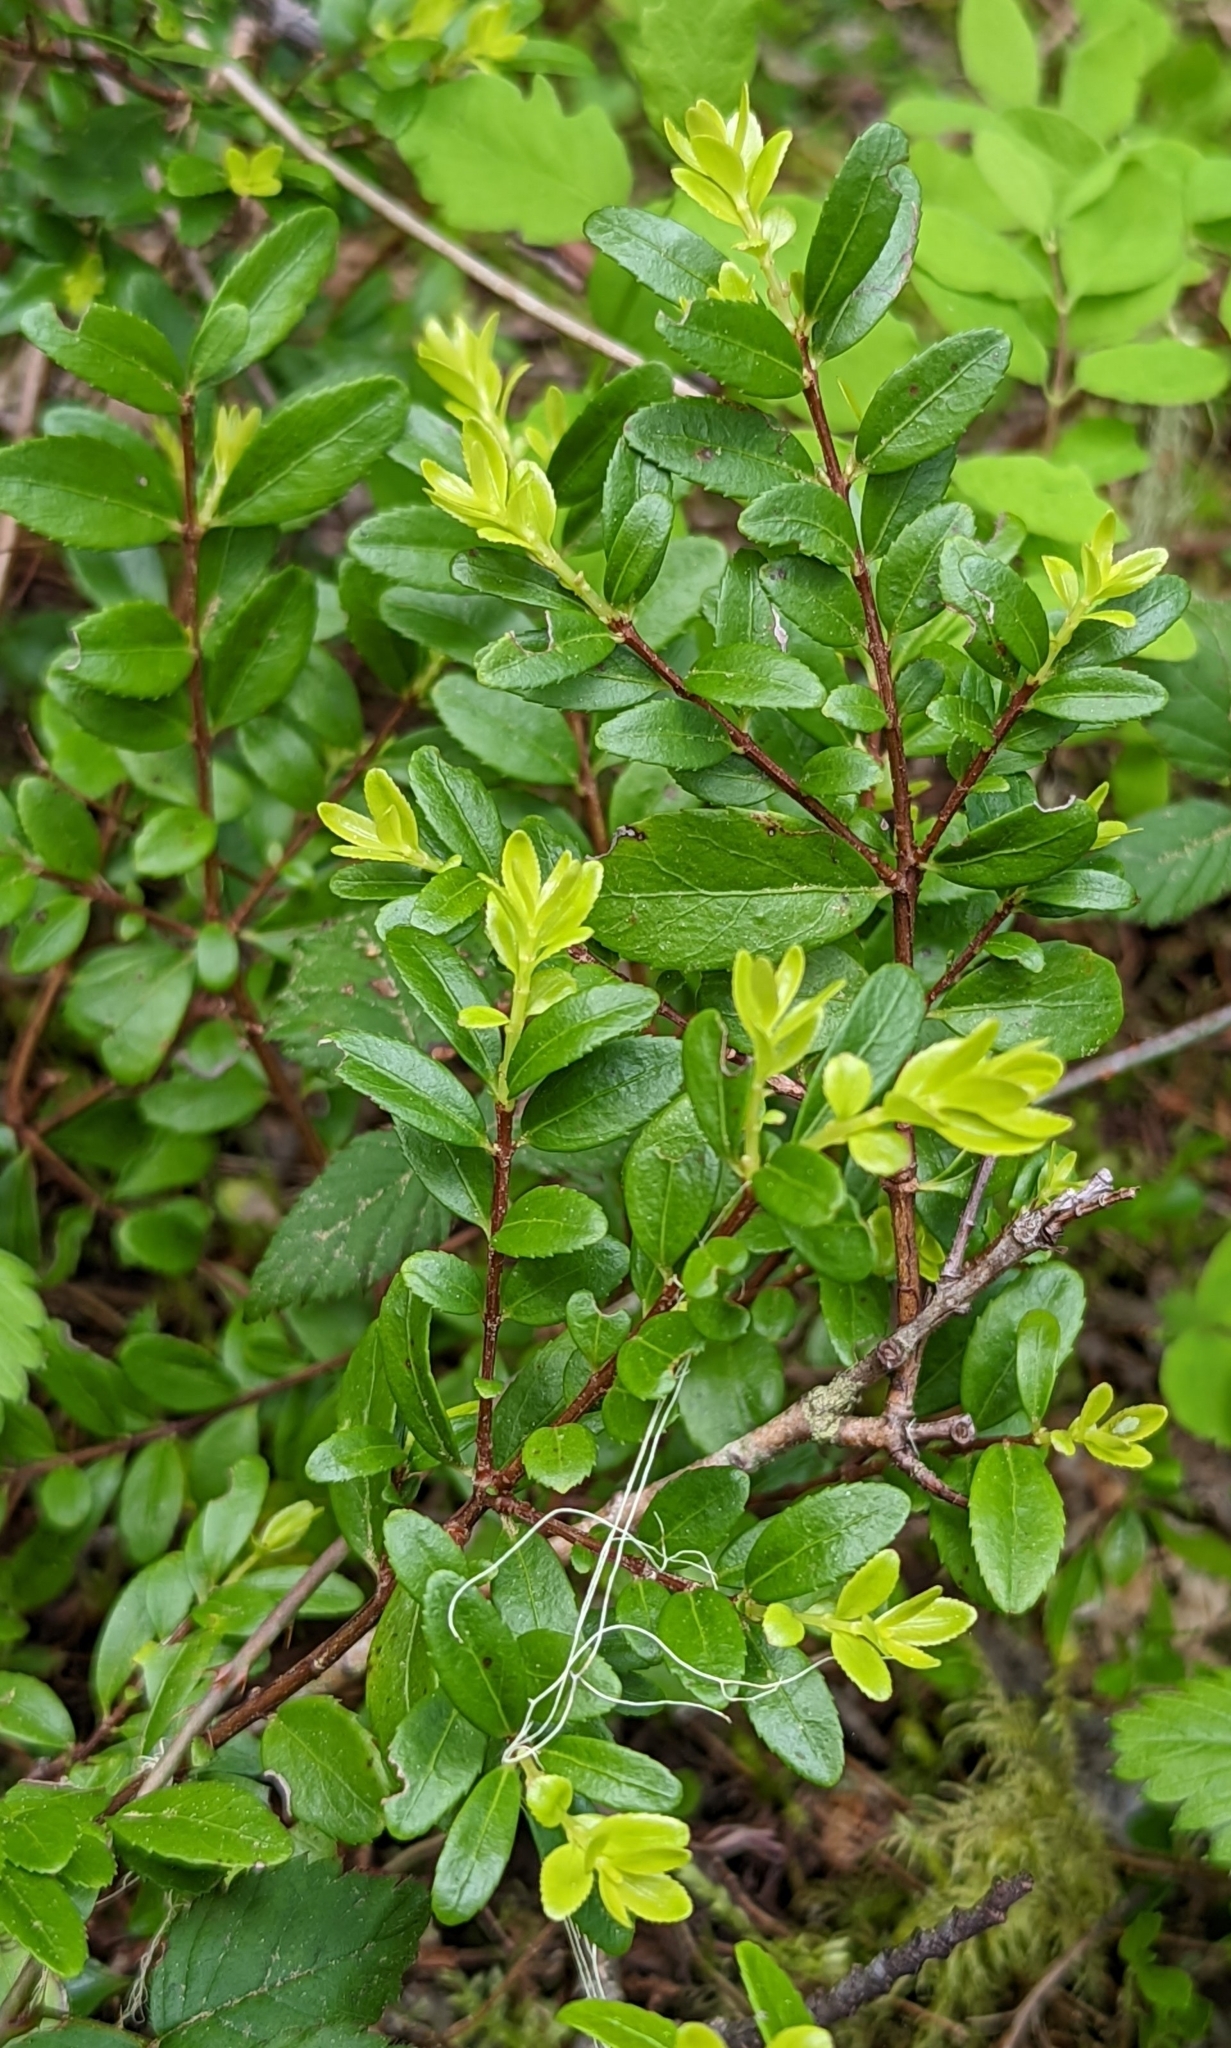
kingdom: Plantae
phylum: Tracheophyta
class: Magnoliopsida
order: Celastrales
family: Celastraceae
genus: Paxistima
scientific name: Paxistima myrsinites
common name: Mountain-lover
